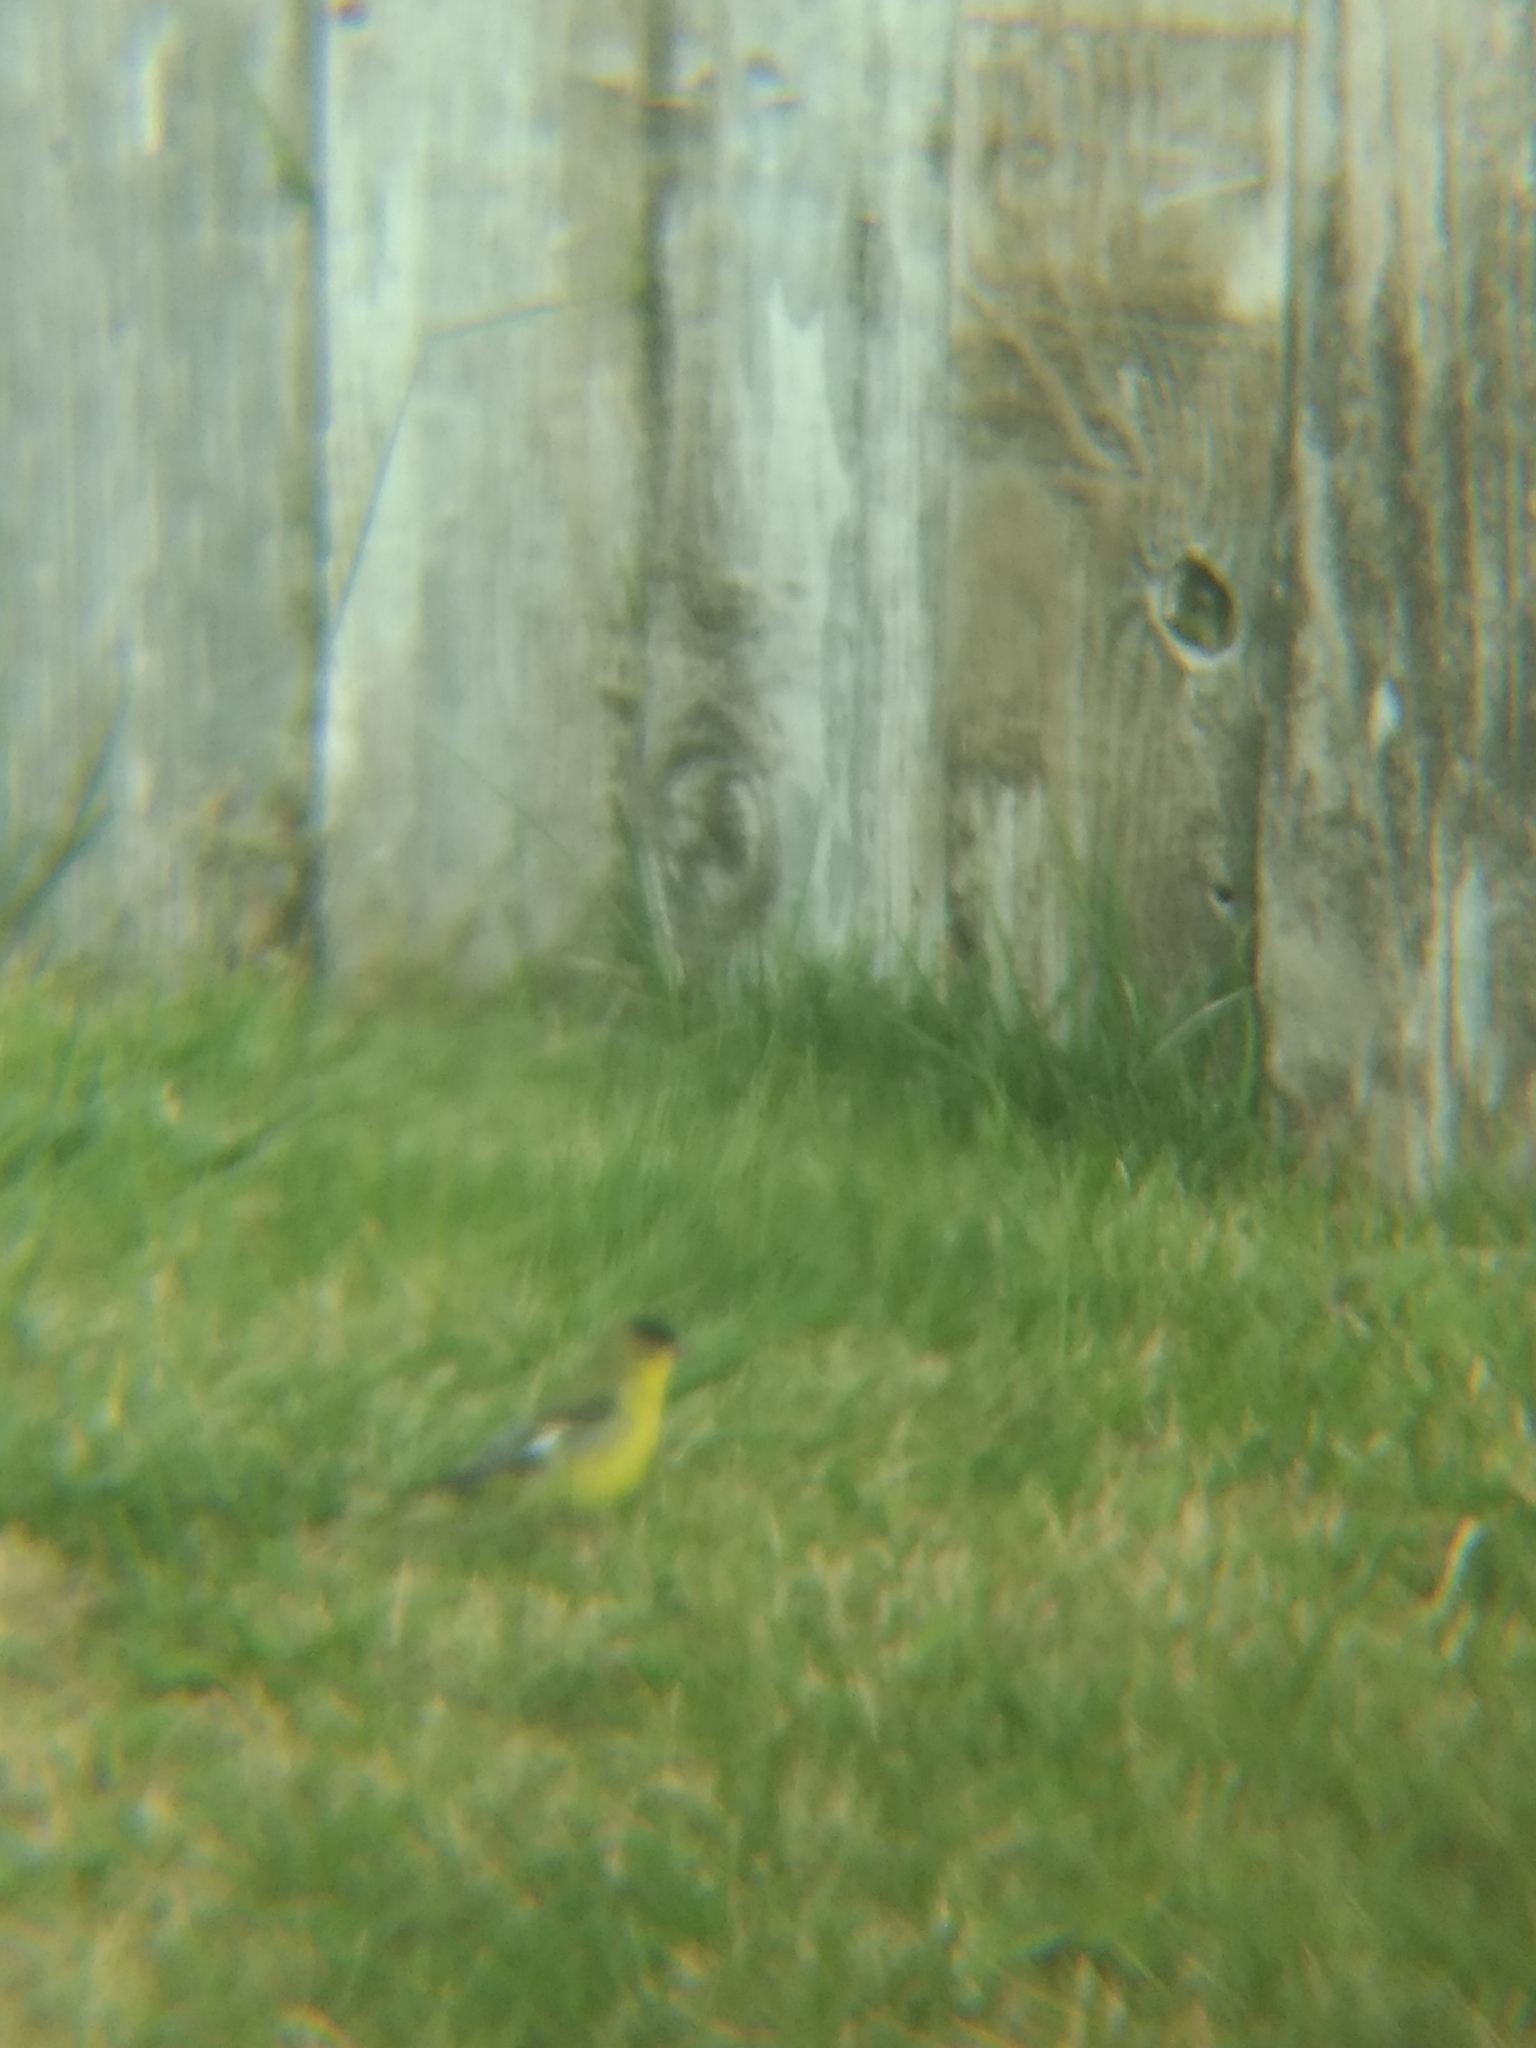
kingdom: Animalia
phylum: Chordata
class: Aves
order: Passeriformes
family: Fringillidae
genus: Spinus
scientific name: Spinus psaltria
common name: Lesser goldfinch
